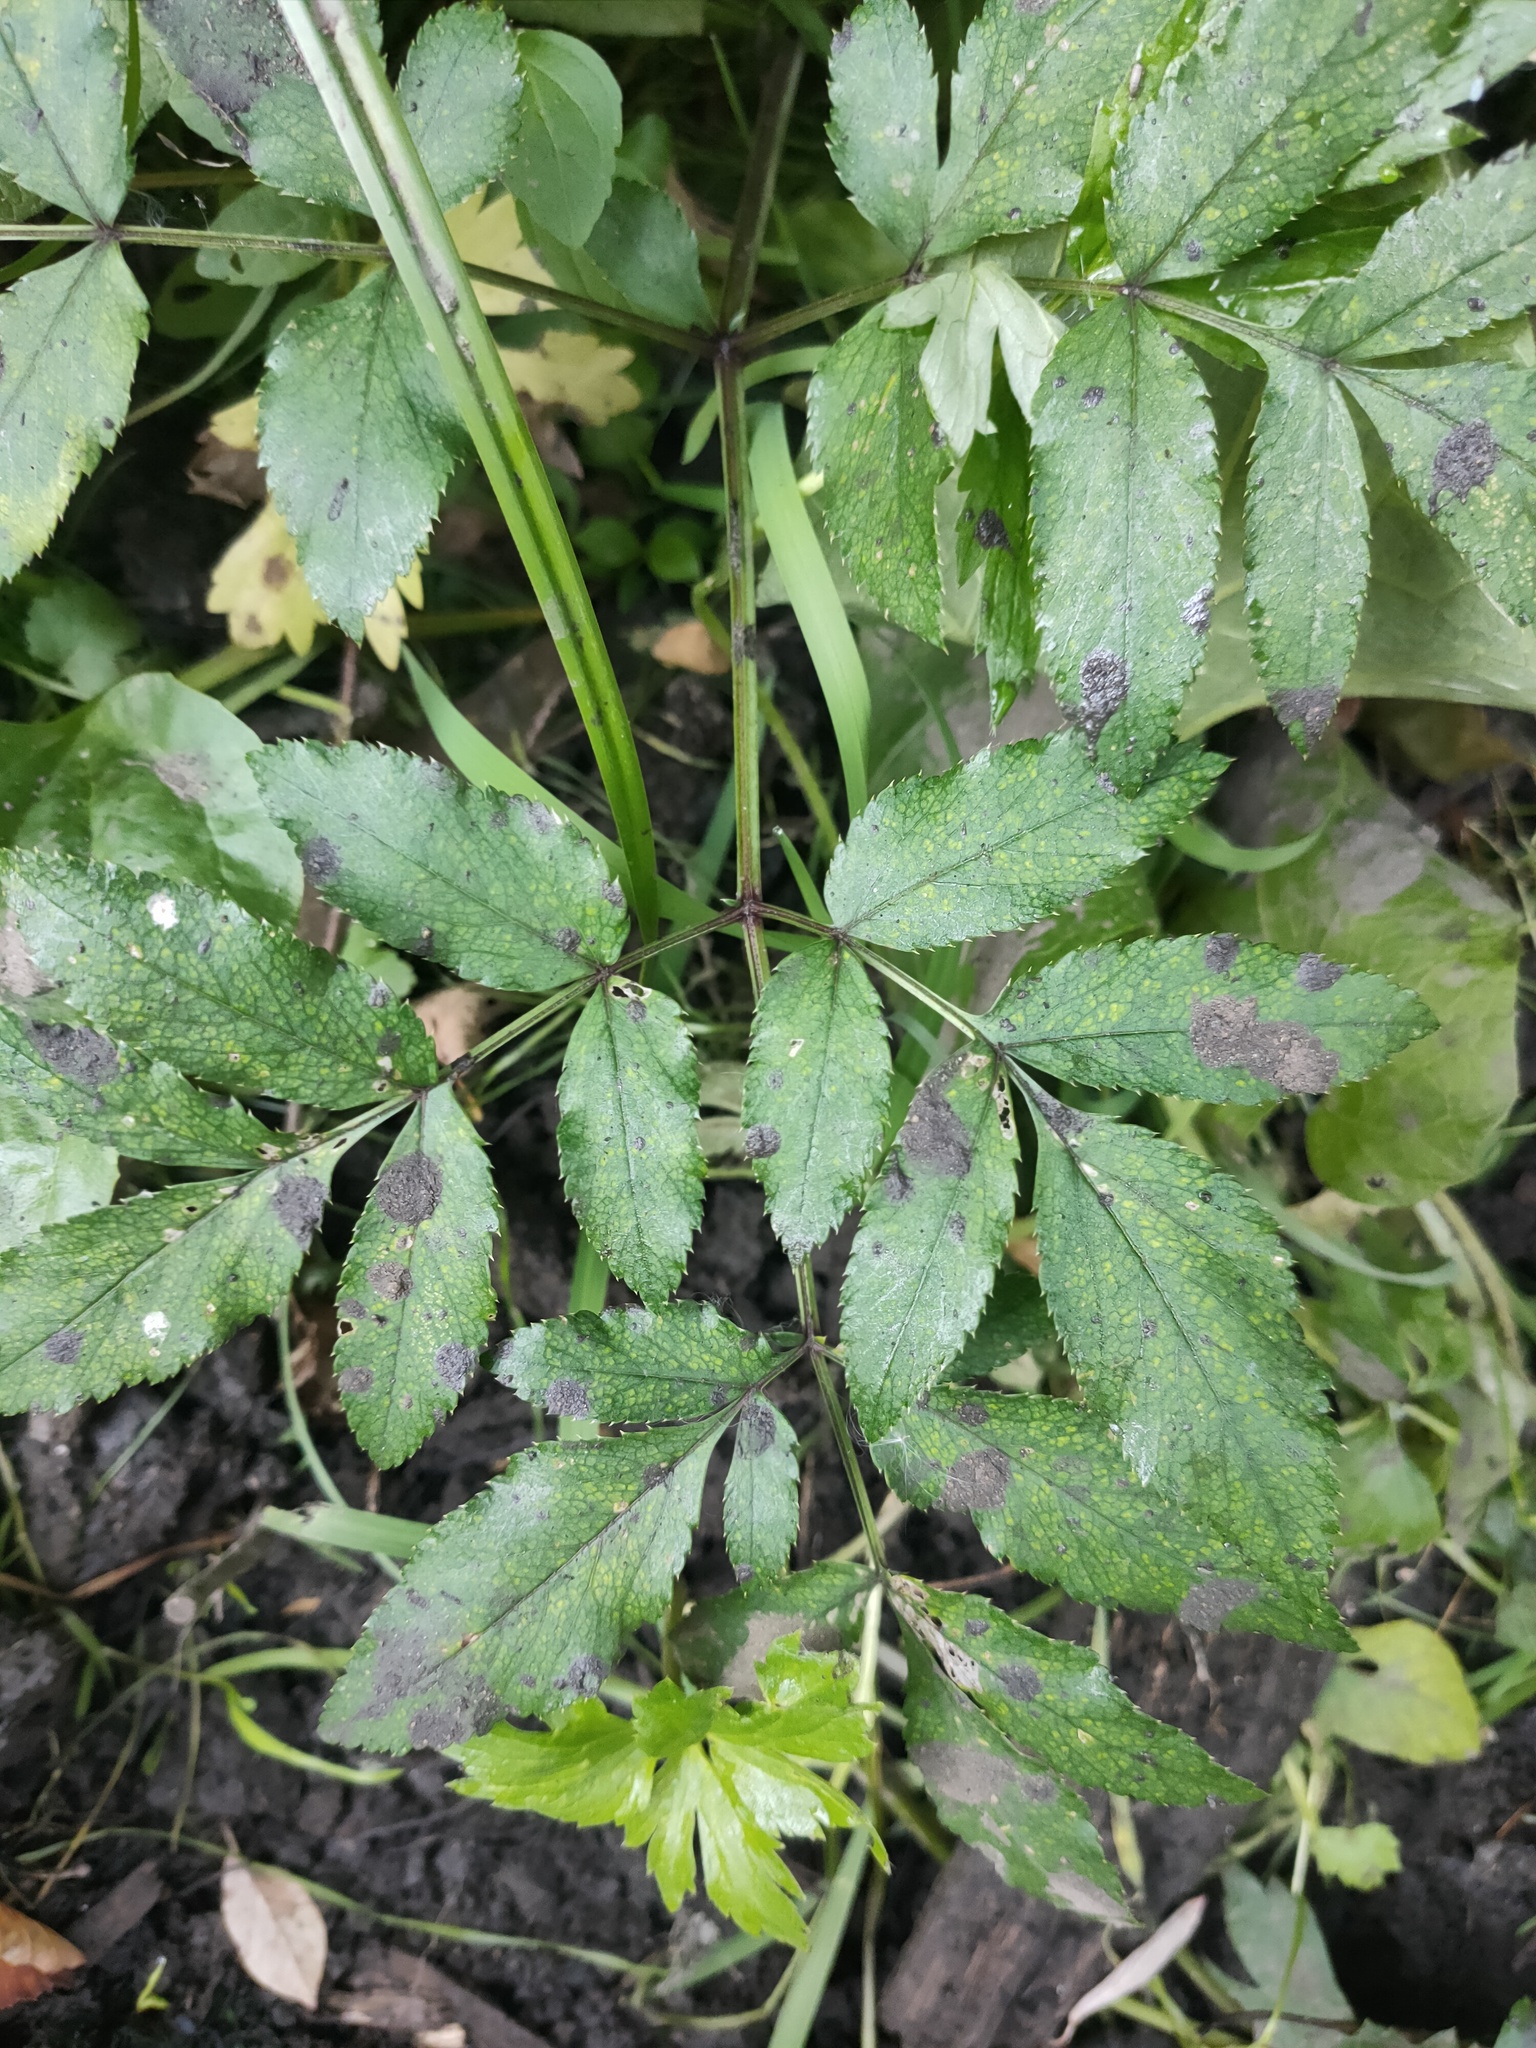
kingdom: Plantae
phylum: Tracheophyta
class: Magnoliopsida
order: Apiales
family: Apiaceae
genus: Angelica
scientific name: Angelica sylvestris
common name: Wild angelica
